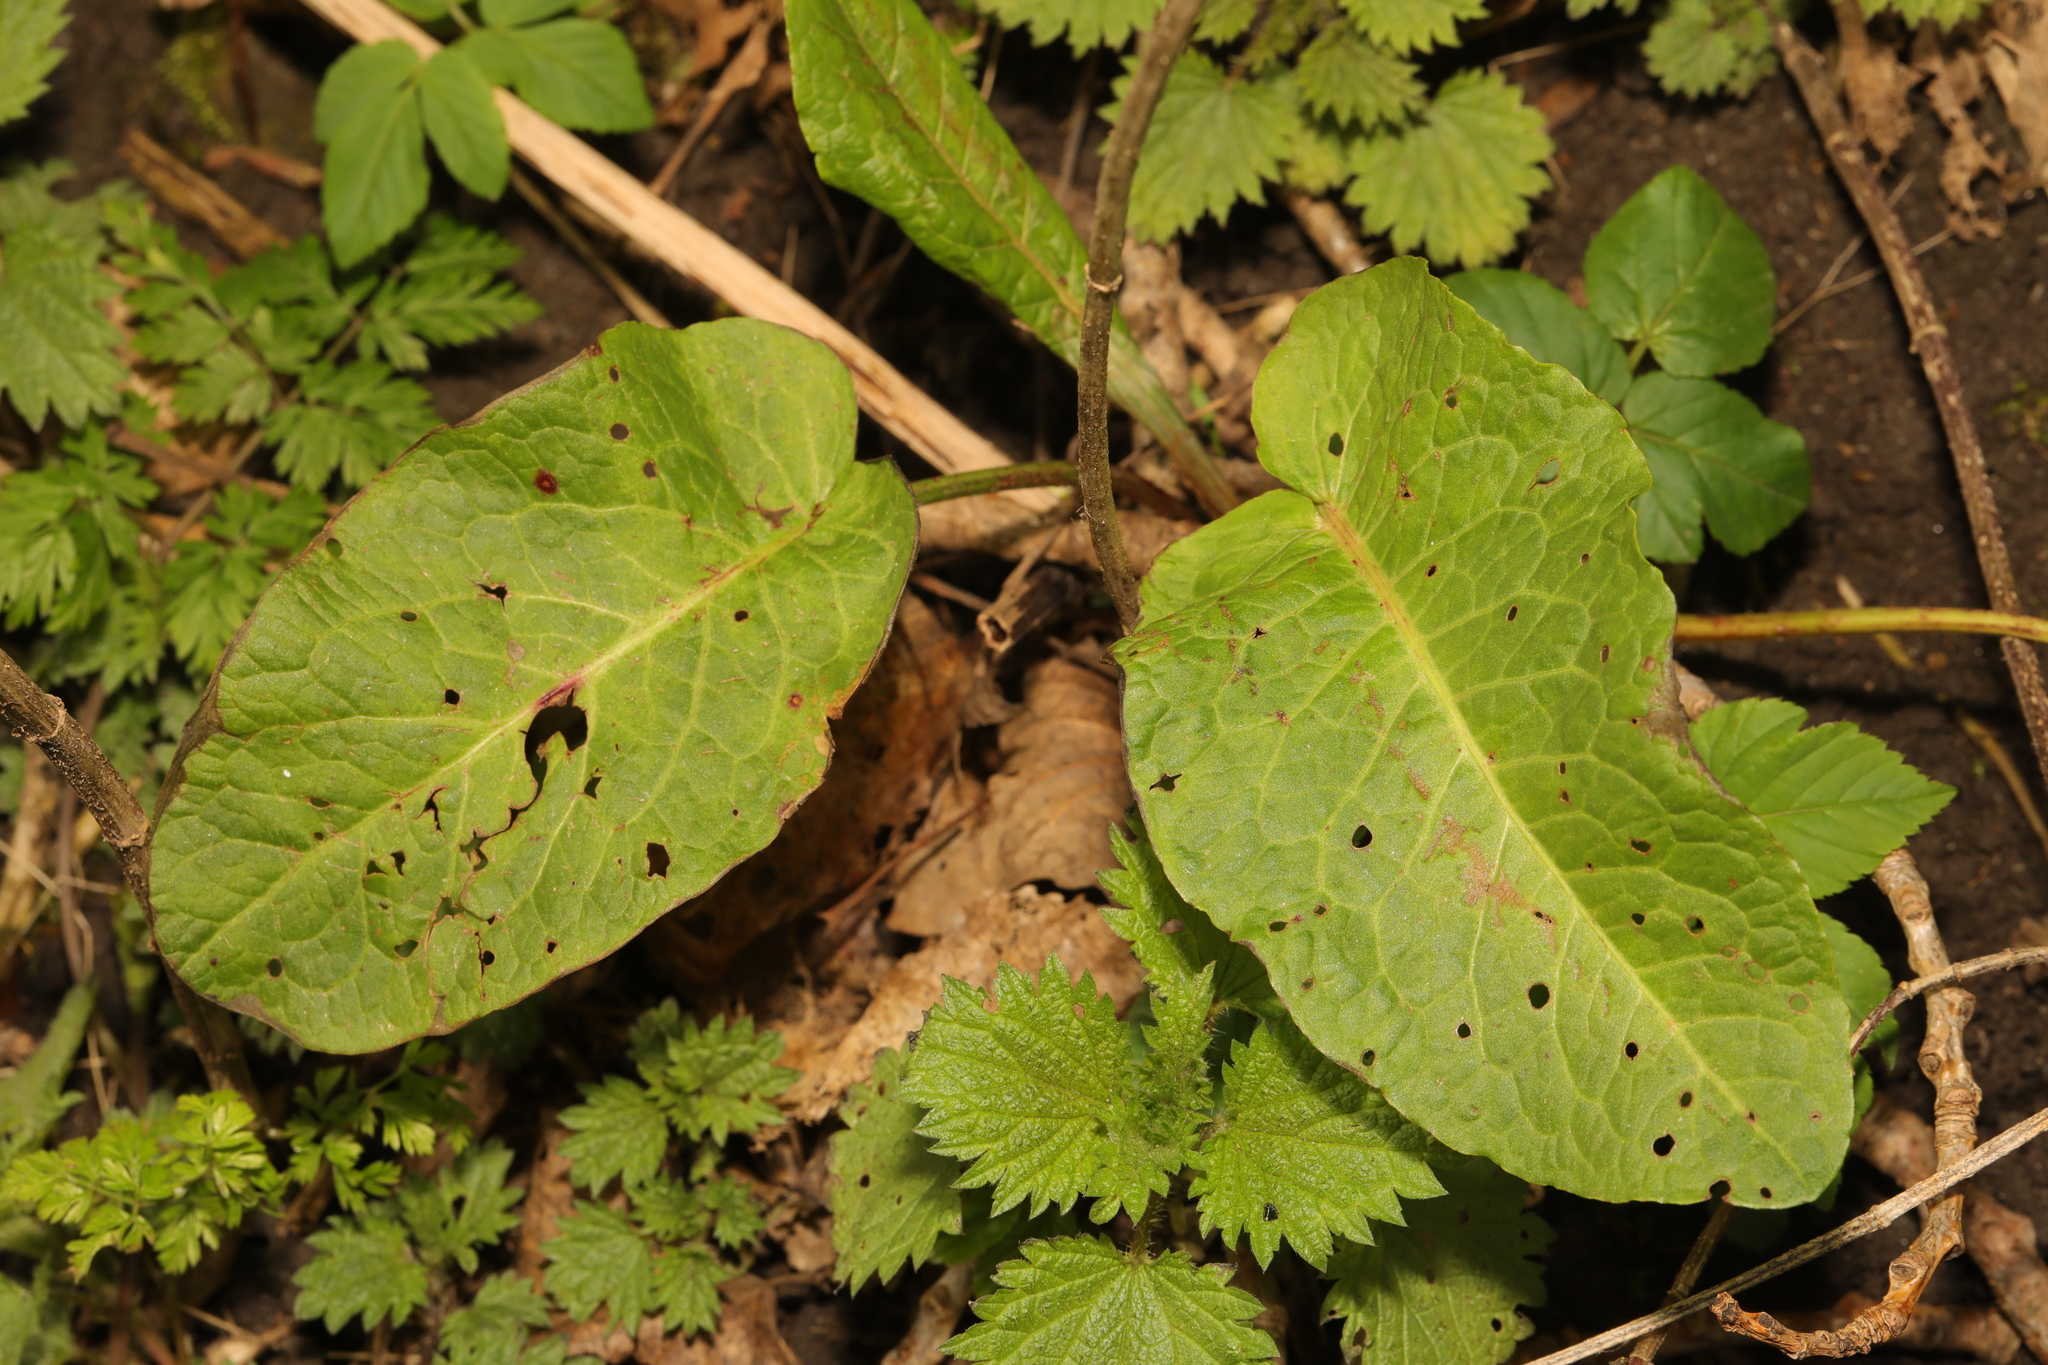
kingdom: Plantae
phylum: Tracheophyta
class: Magnoliopsida
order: Caryophyllales
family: Polygonaceae
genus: Rumex
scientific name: Rumex obtusifolius
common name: Bitter dock
